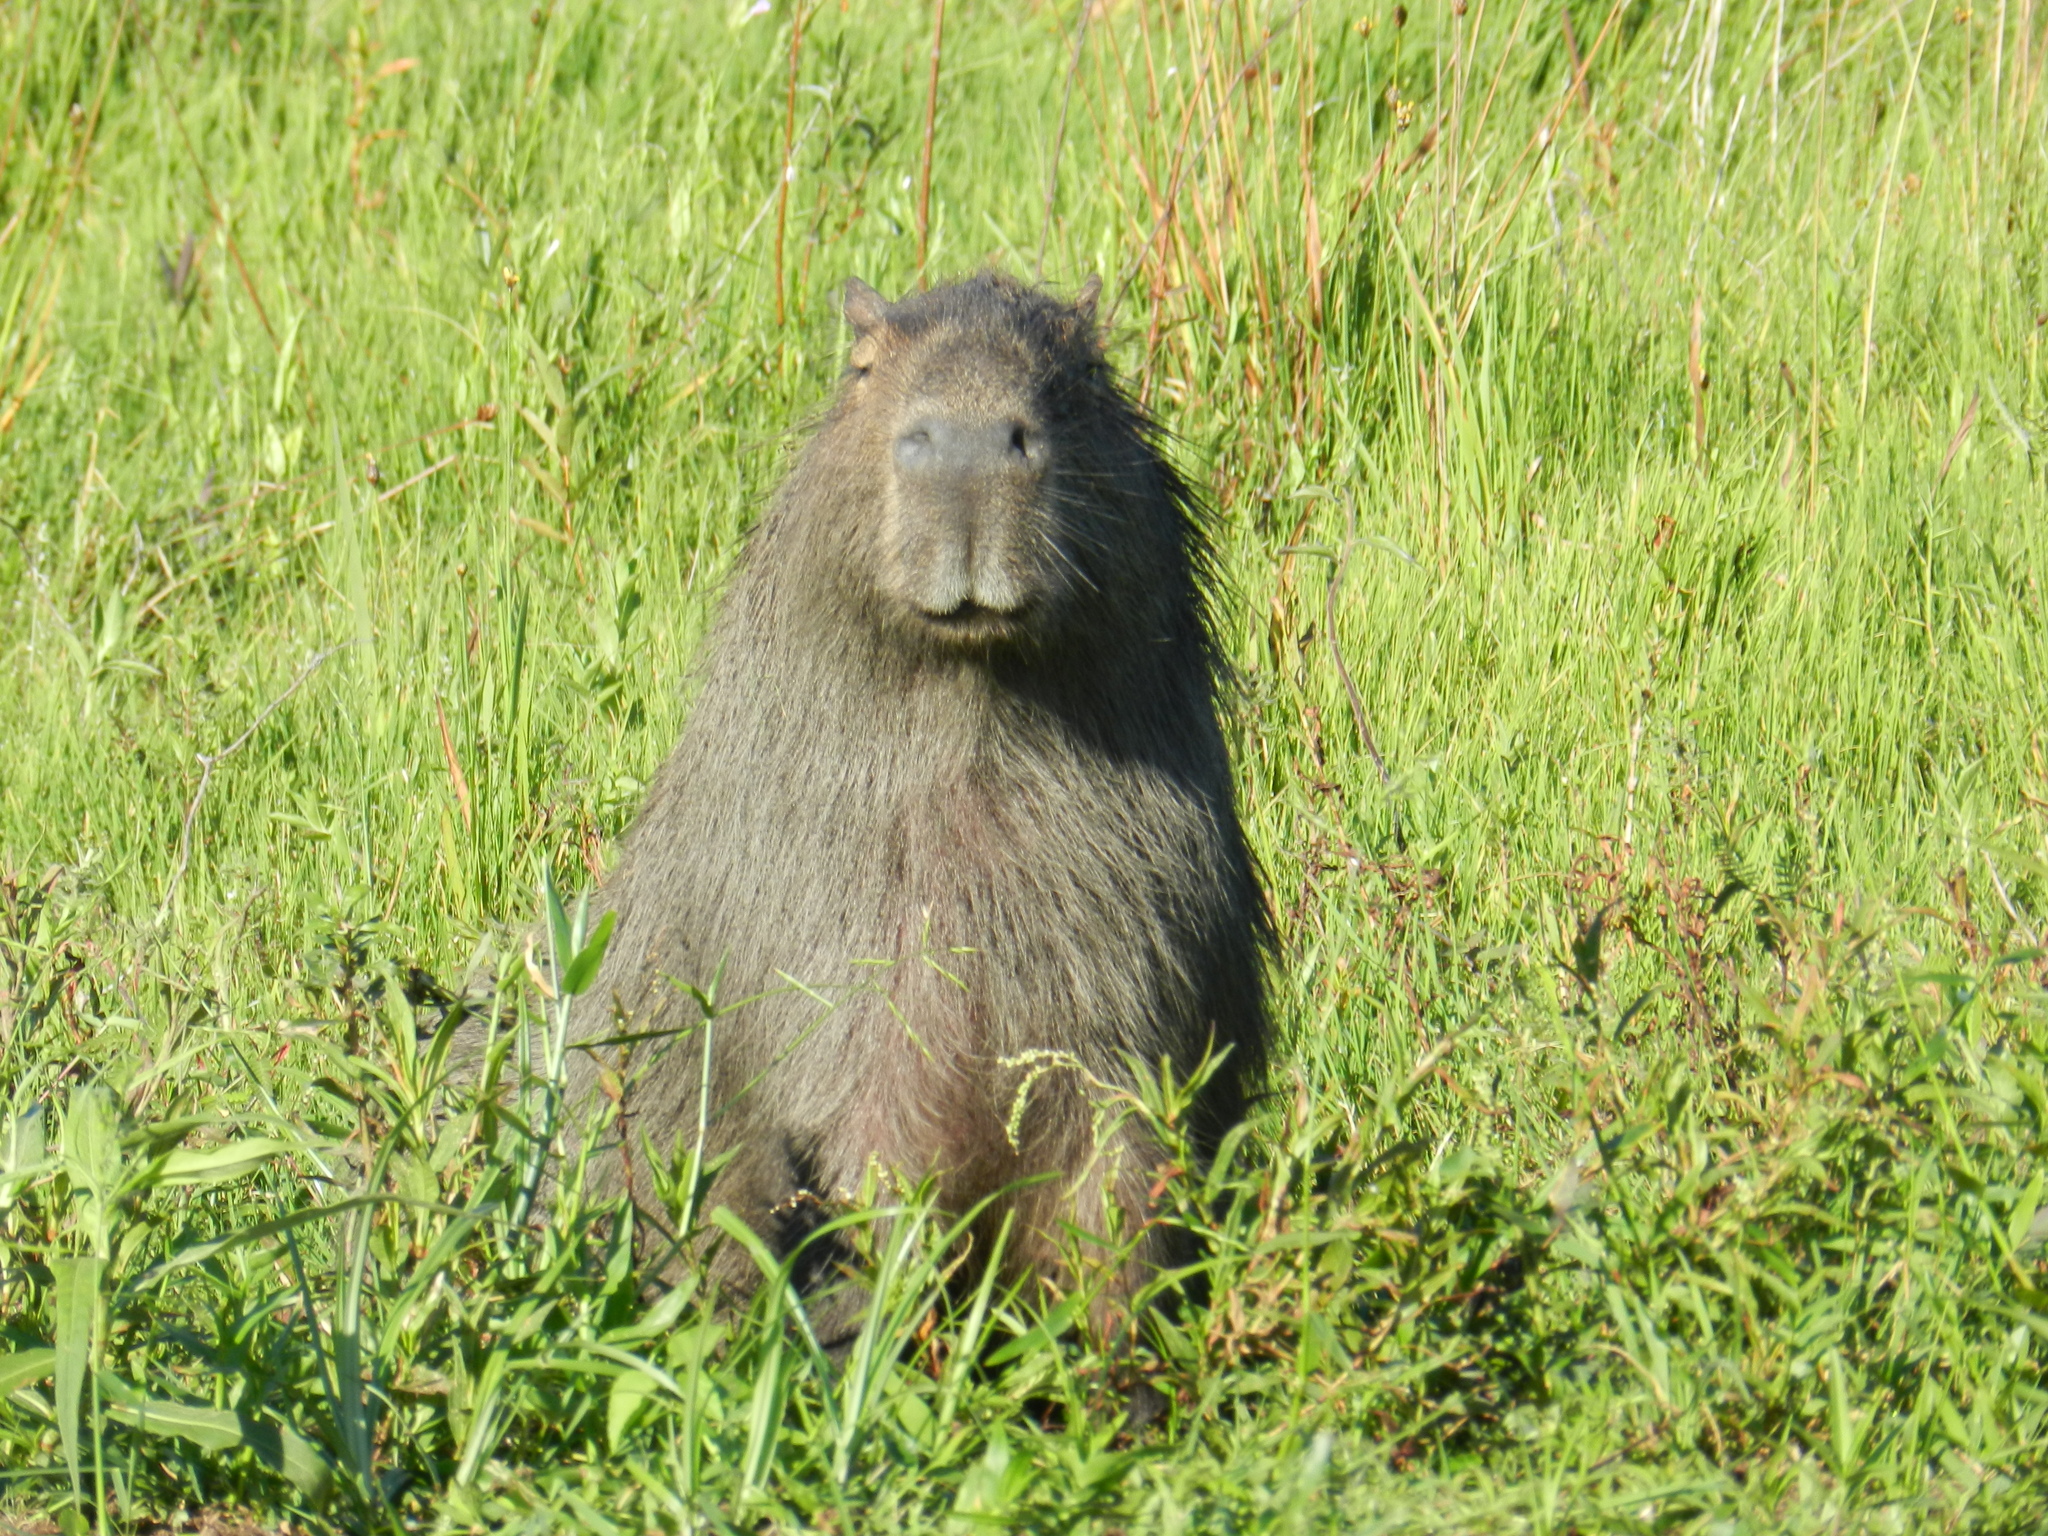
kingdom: Animalia
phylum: Chordata
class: Mammalia
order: Rodentia
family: Caviidae
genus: Hydrochoerus
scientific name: Hydrochoerus hydrochaeris
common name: Capybara
